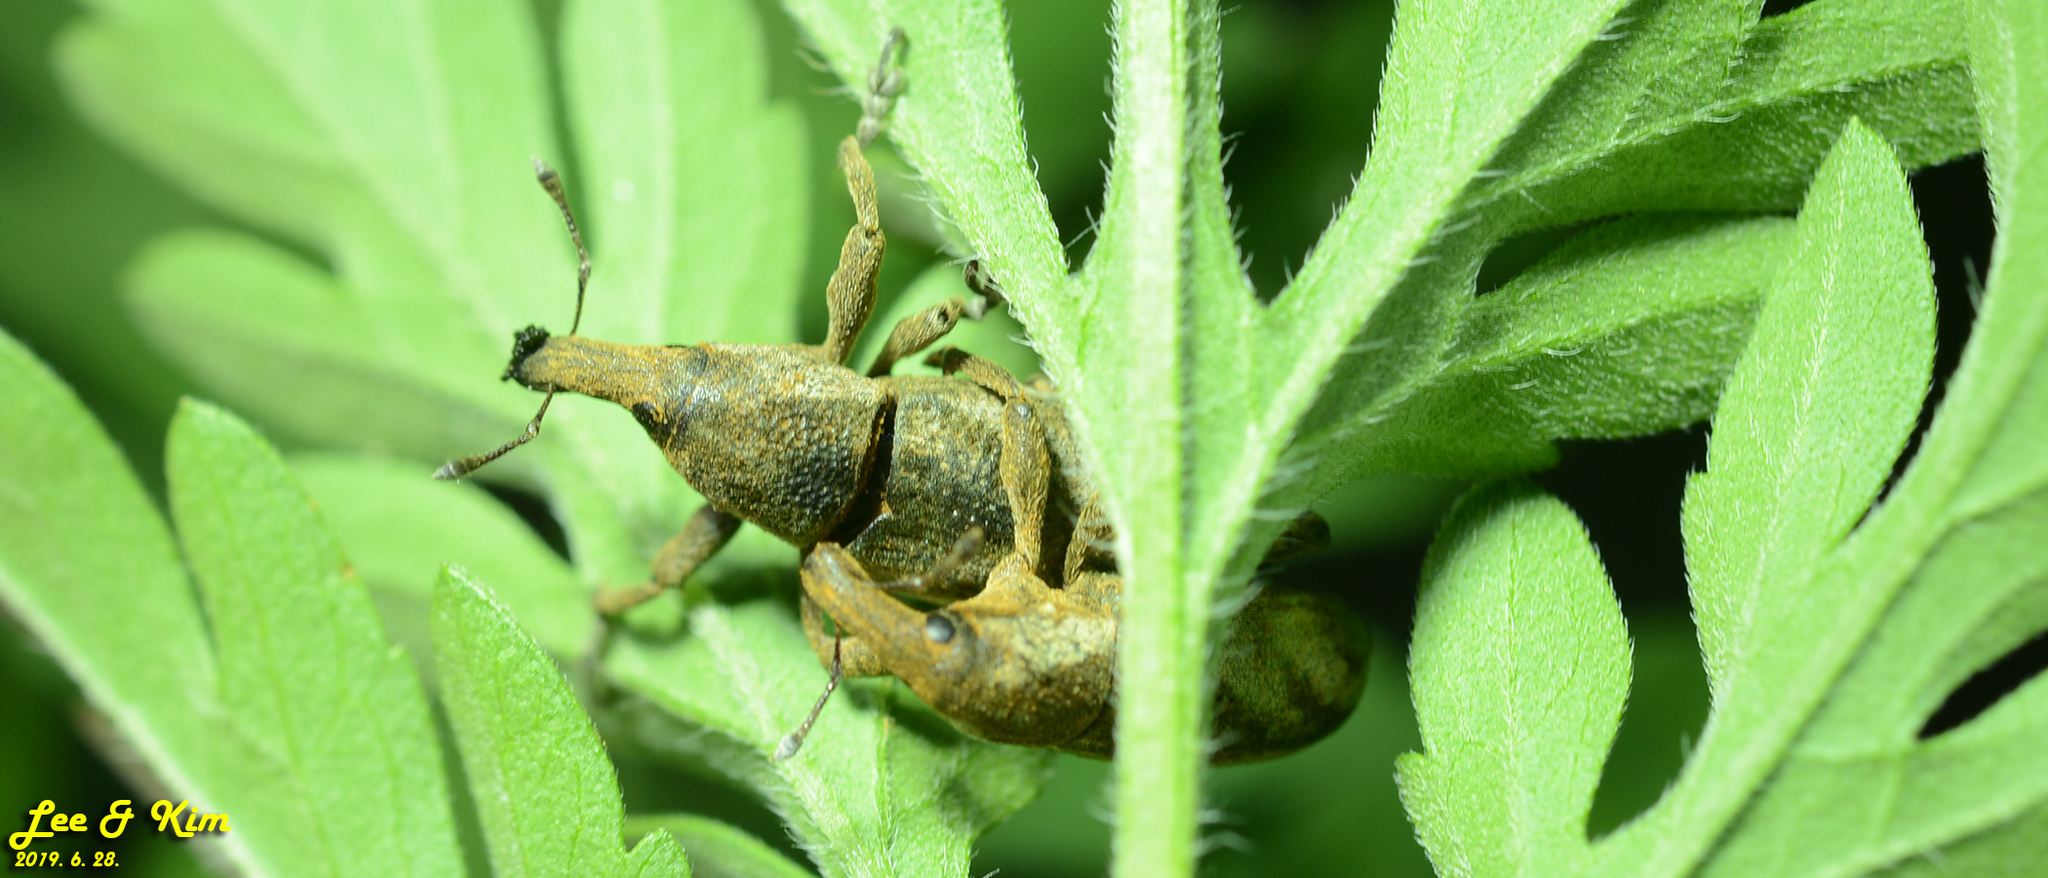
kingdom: Animalia
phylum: Arthropoda
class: Insecta
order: Coleoptera
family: Curculionidae
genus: Lixus
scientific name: Lixus
